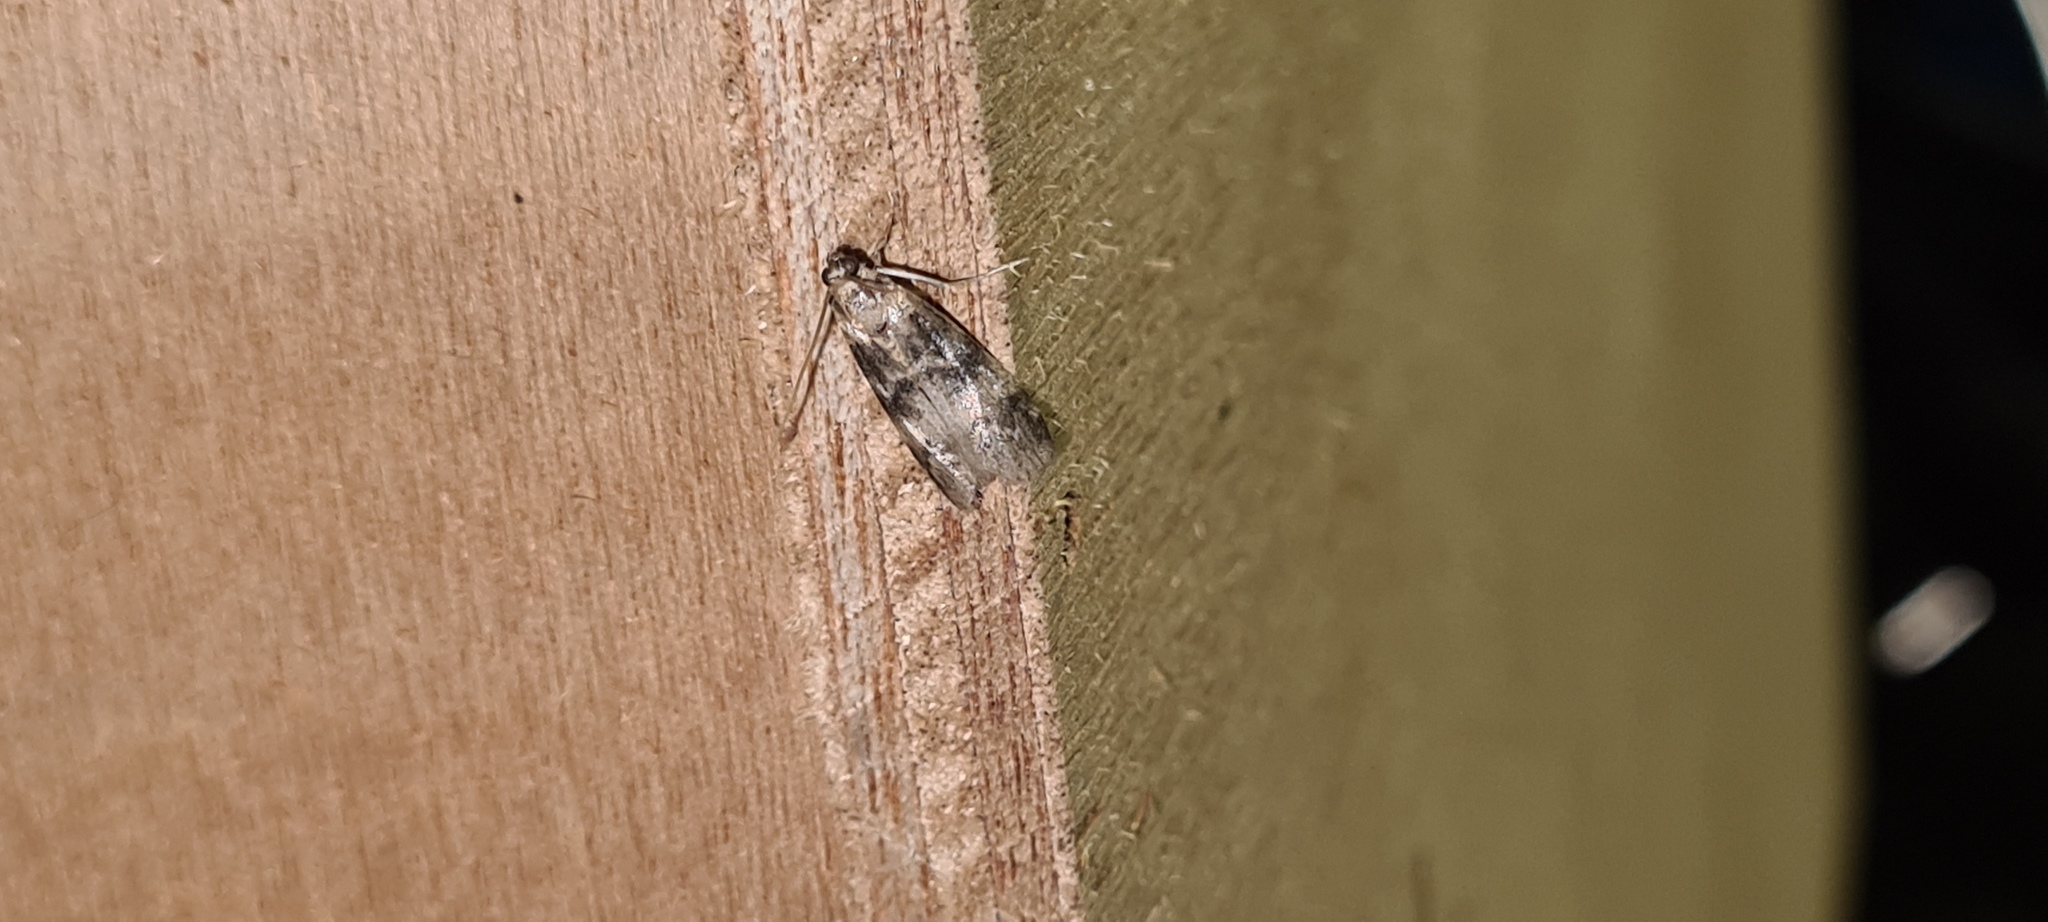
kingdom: Animalia
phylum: Arthropoda
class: Insecta
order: Lepidoptera
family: Pyralidae
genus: Euzophera
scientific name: Euzophera pinguis
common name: Ash-bark knot-horn
